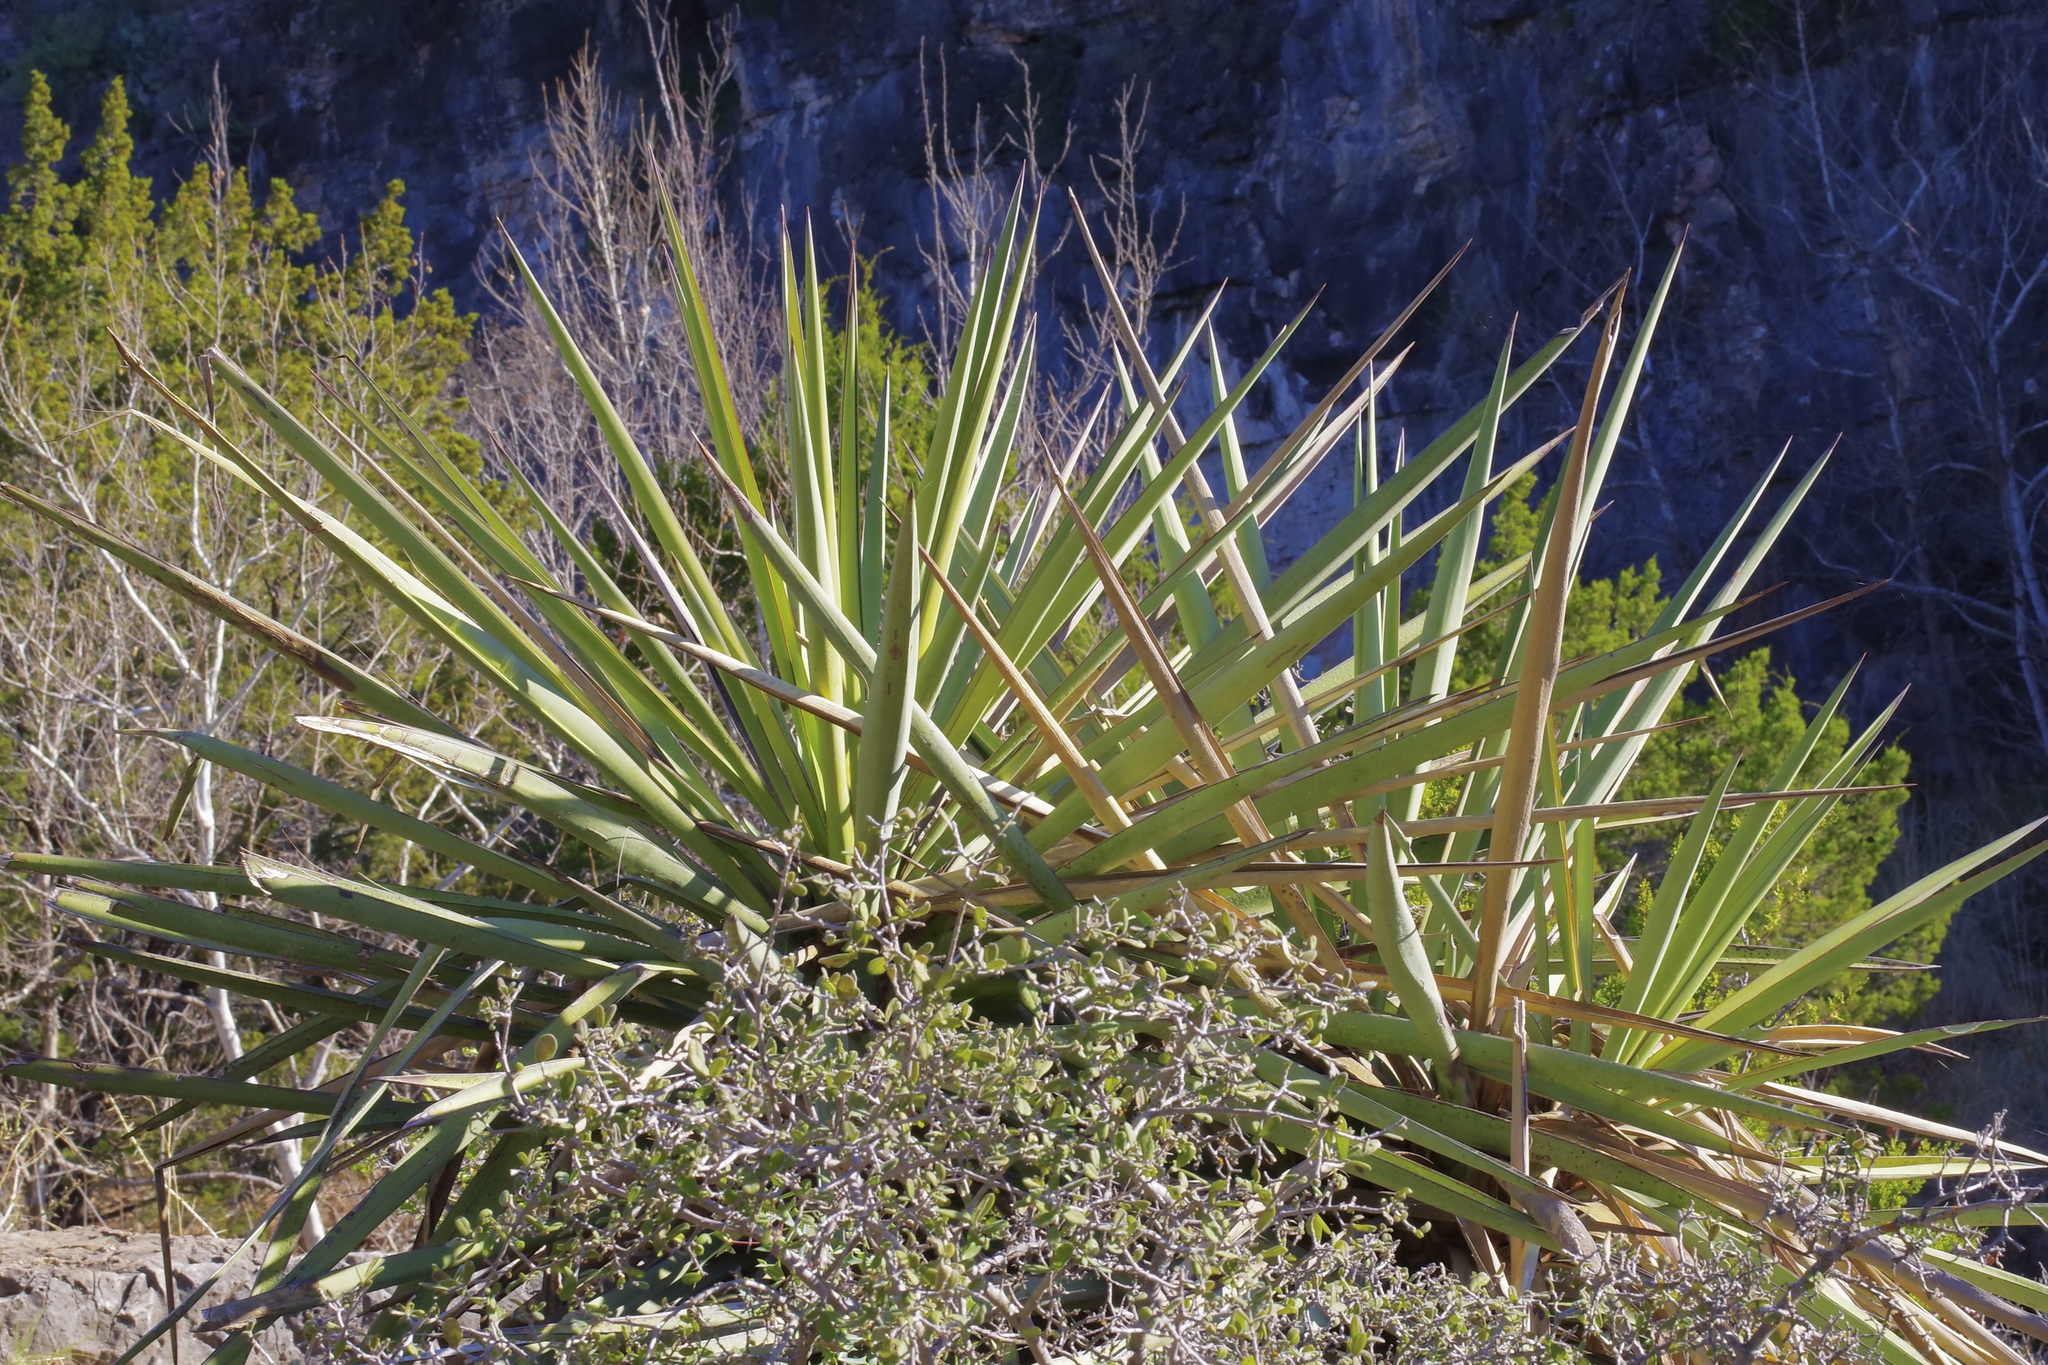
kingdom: Plantae
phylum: Tracheophyta
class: Liliopsida
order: Asparagales
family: Asparagaceae
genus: Yucca
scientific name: Yucca treculiana
